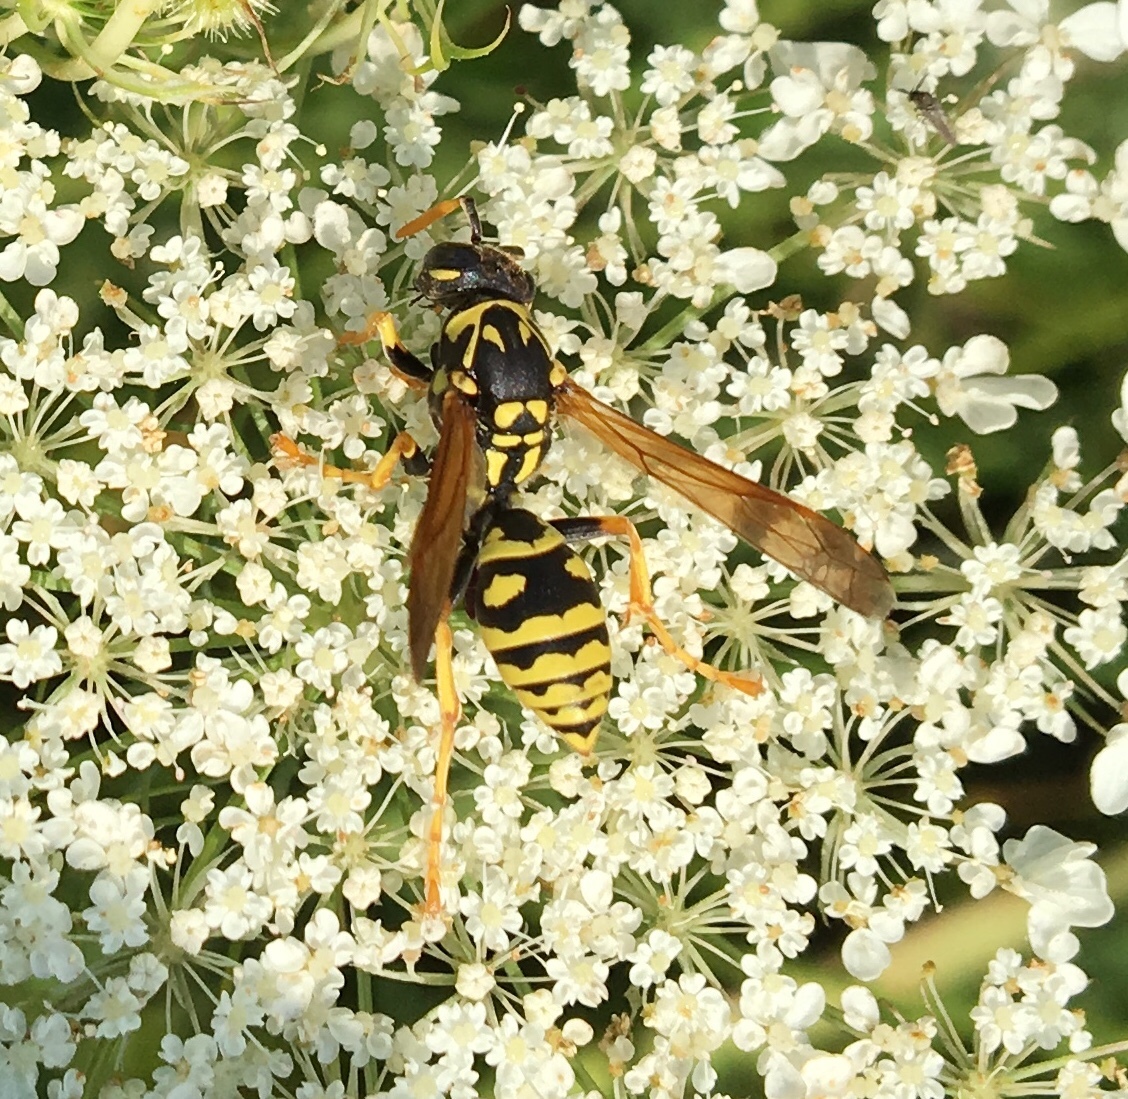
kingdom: Animalia
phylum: Arthropoda
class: Insecta
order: Hymenoptera
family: Eumenidae
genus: Polistes
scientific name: Polistes dominula
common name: Paper wasp
